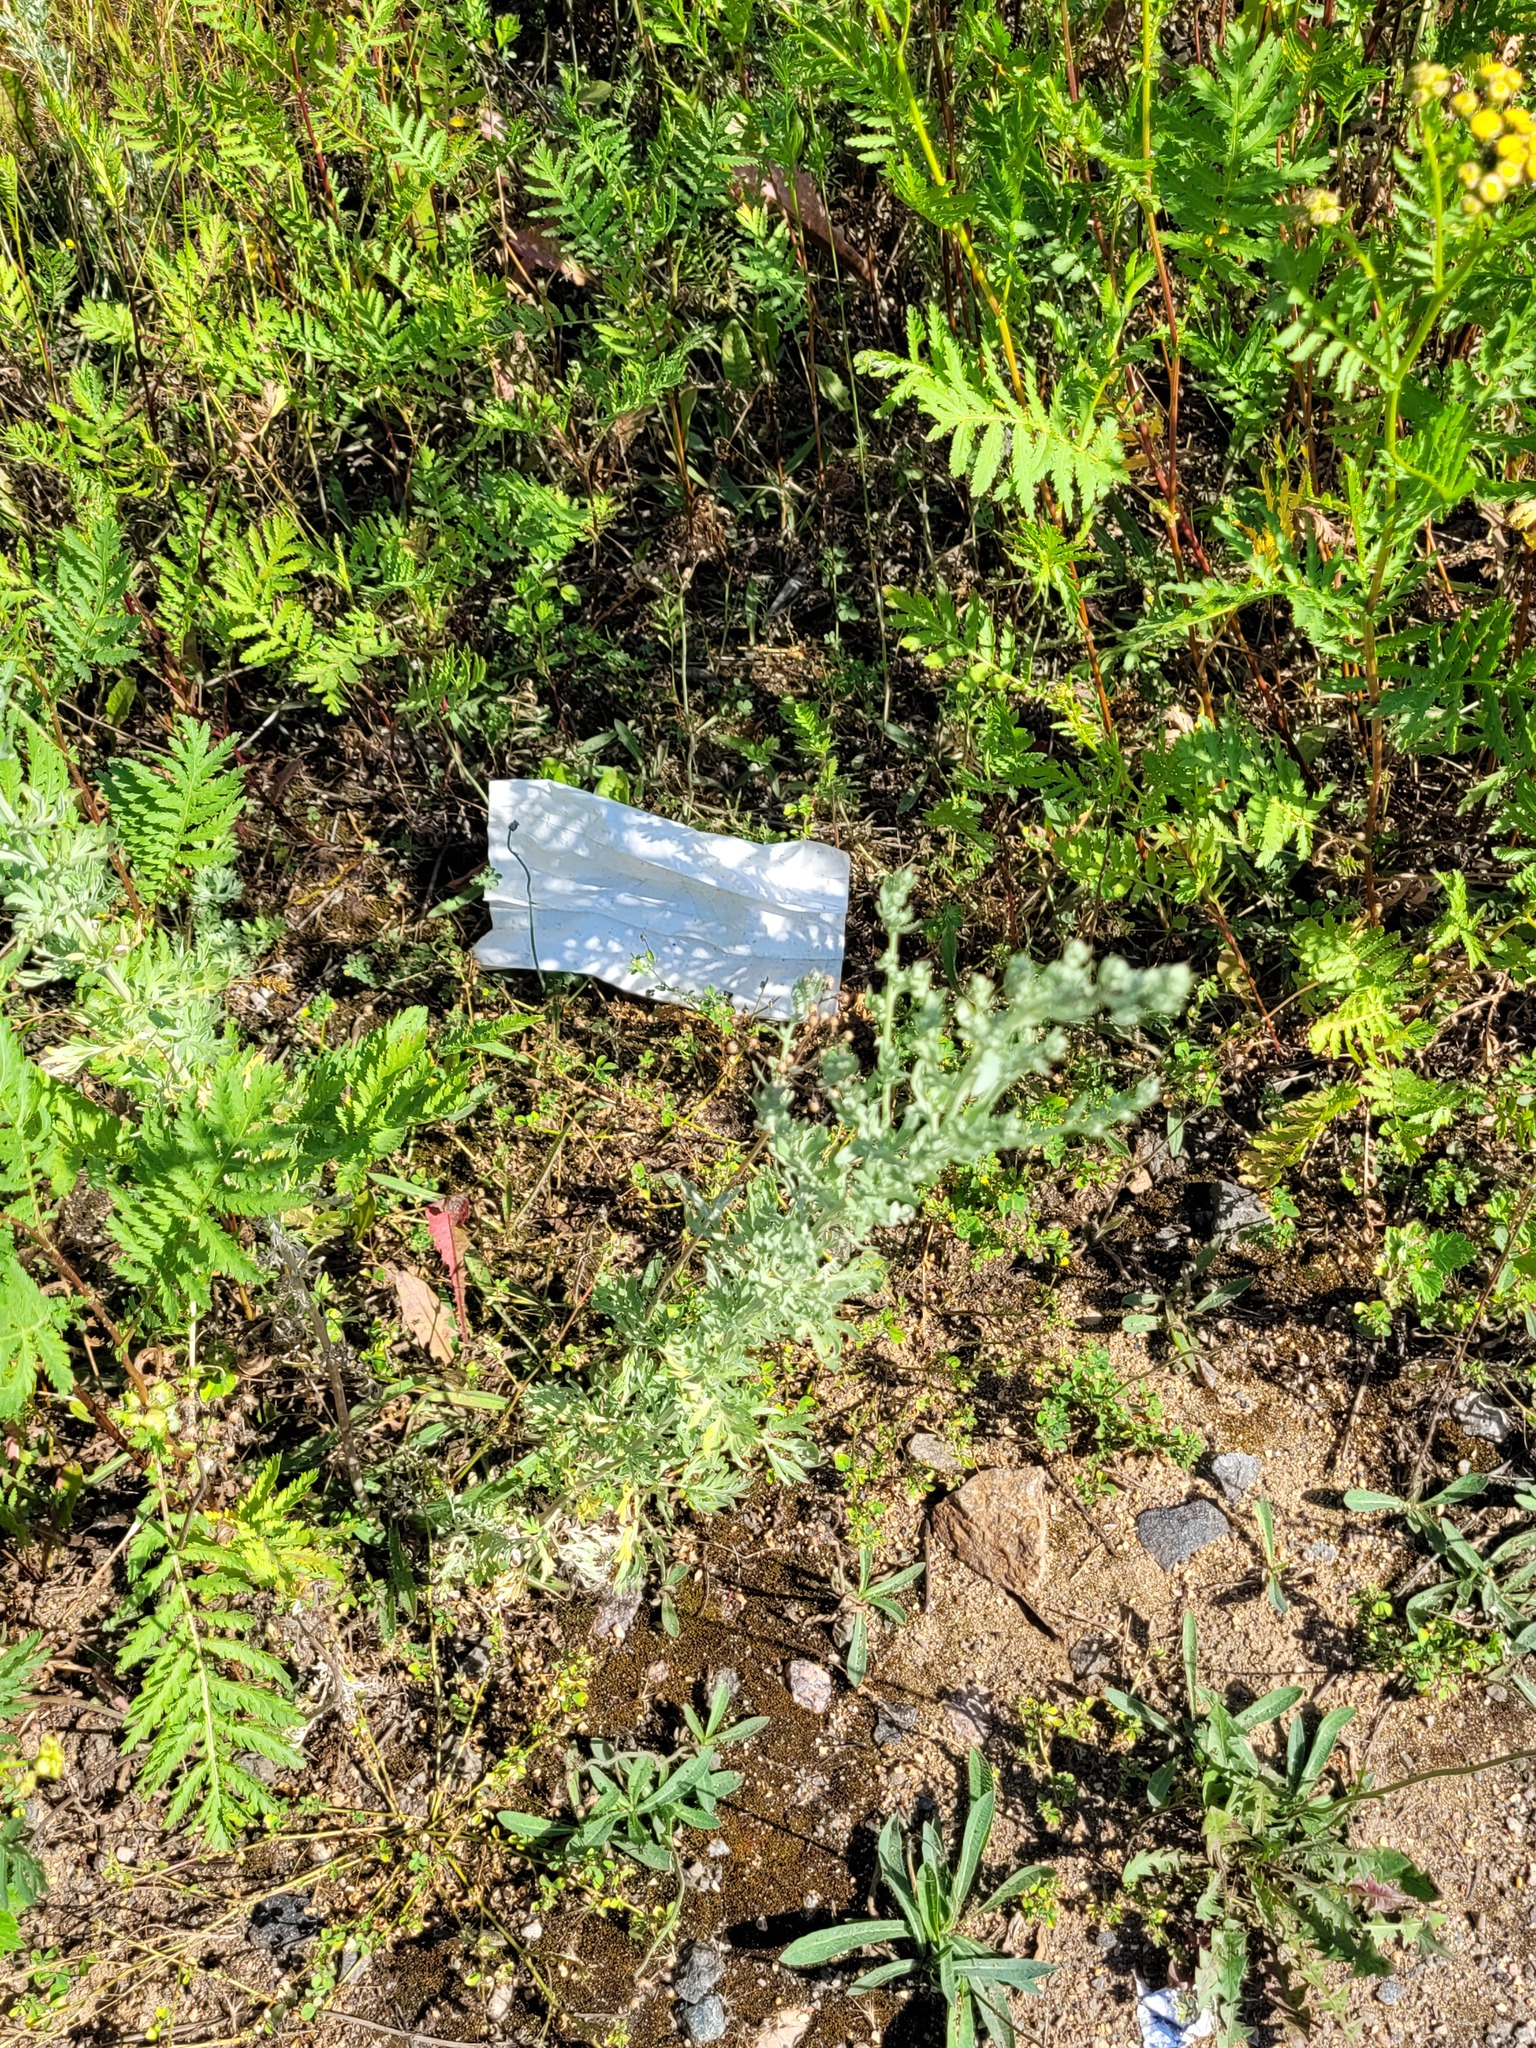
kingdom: Plantae
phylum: Tracheophyta
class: Magnoliopsida
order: Asterales
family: Asteraceae
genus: Artemisia
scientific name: Artemisia absinthium
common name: Wormwood
